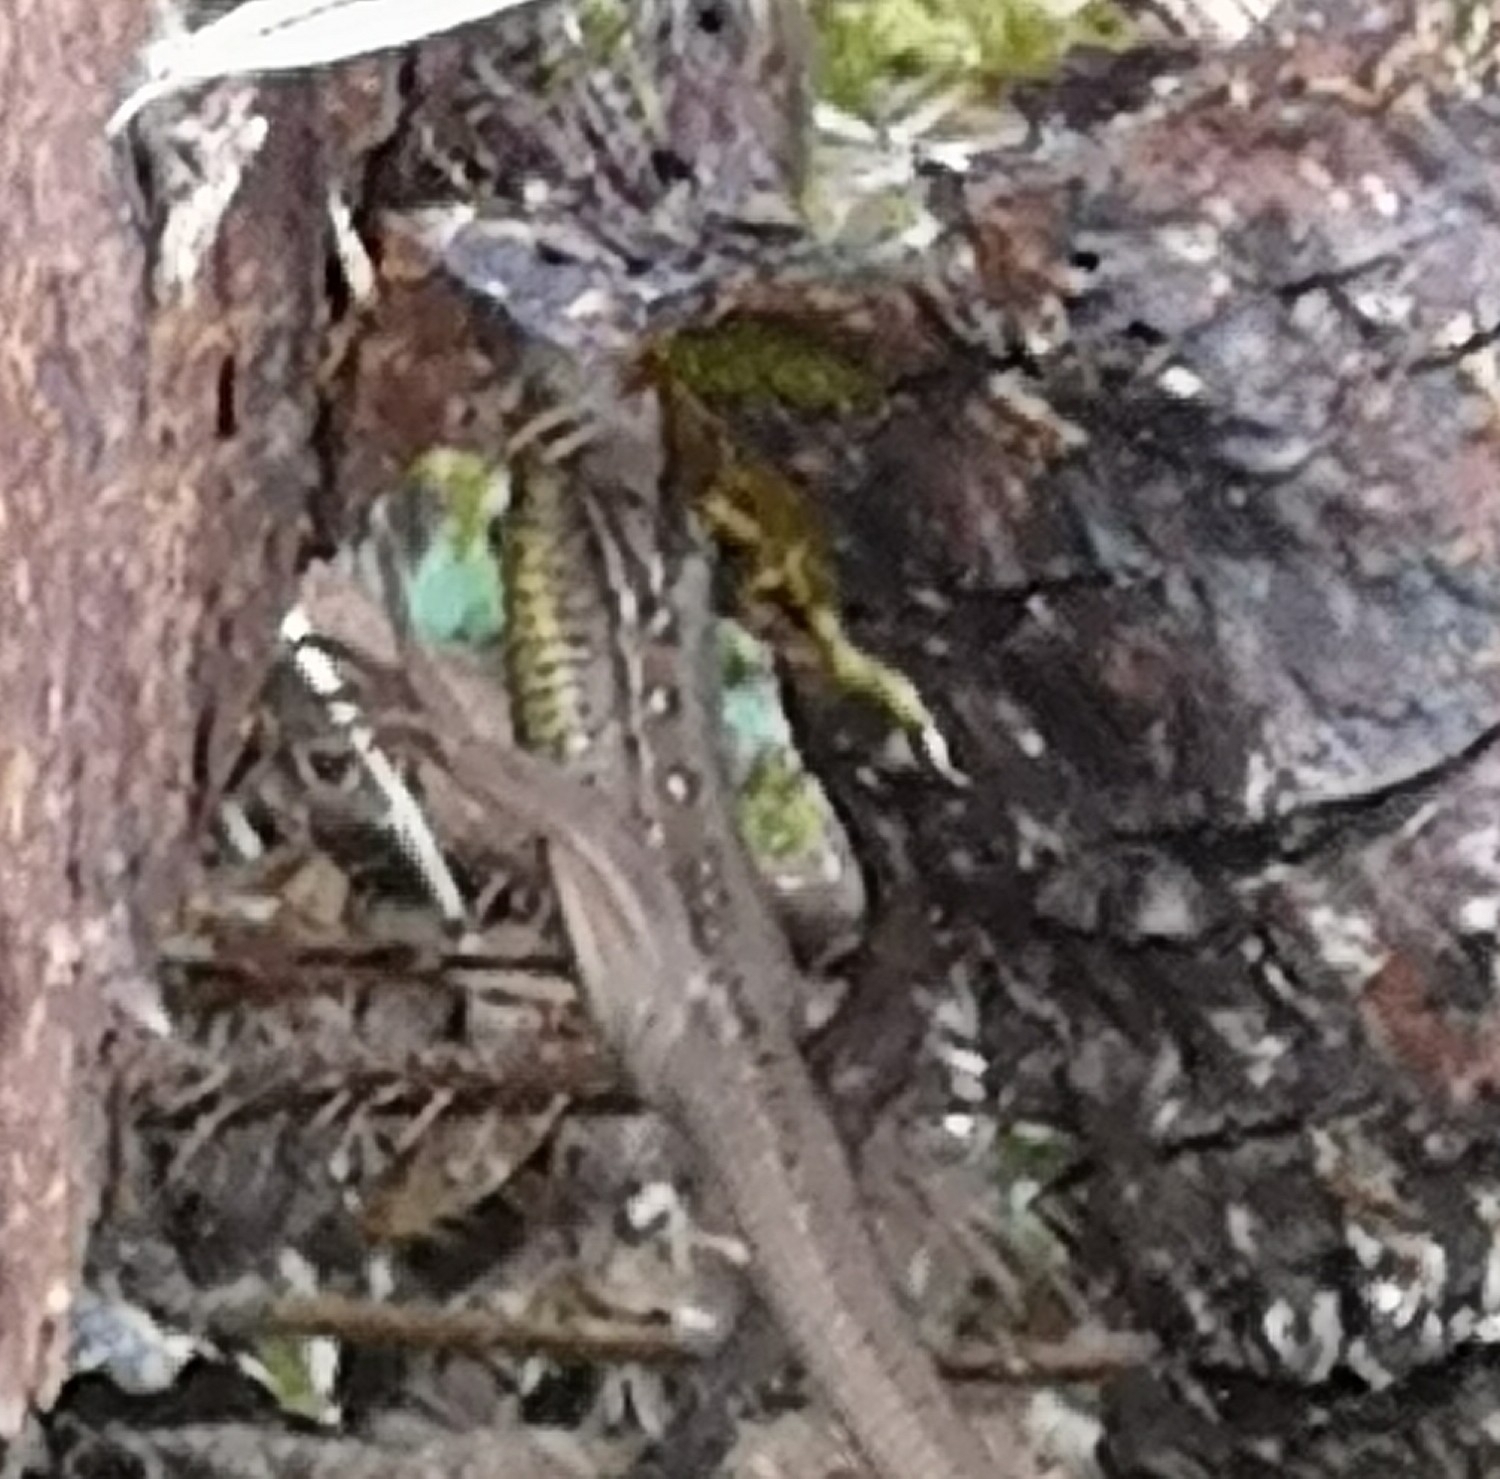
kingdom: Animalia
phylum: Chordata
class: Squamata
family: Lacertidae
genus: Lacerta
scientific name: Lacerta agilis
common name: Sand lizard
